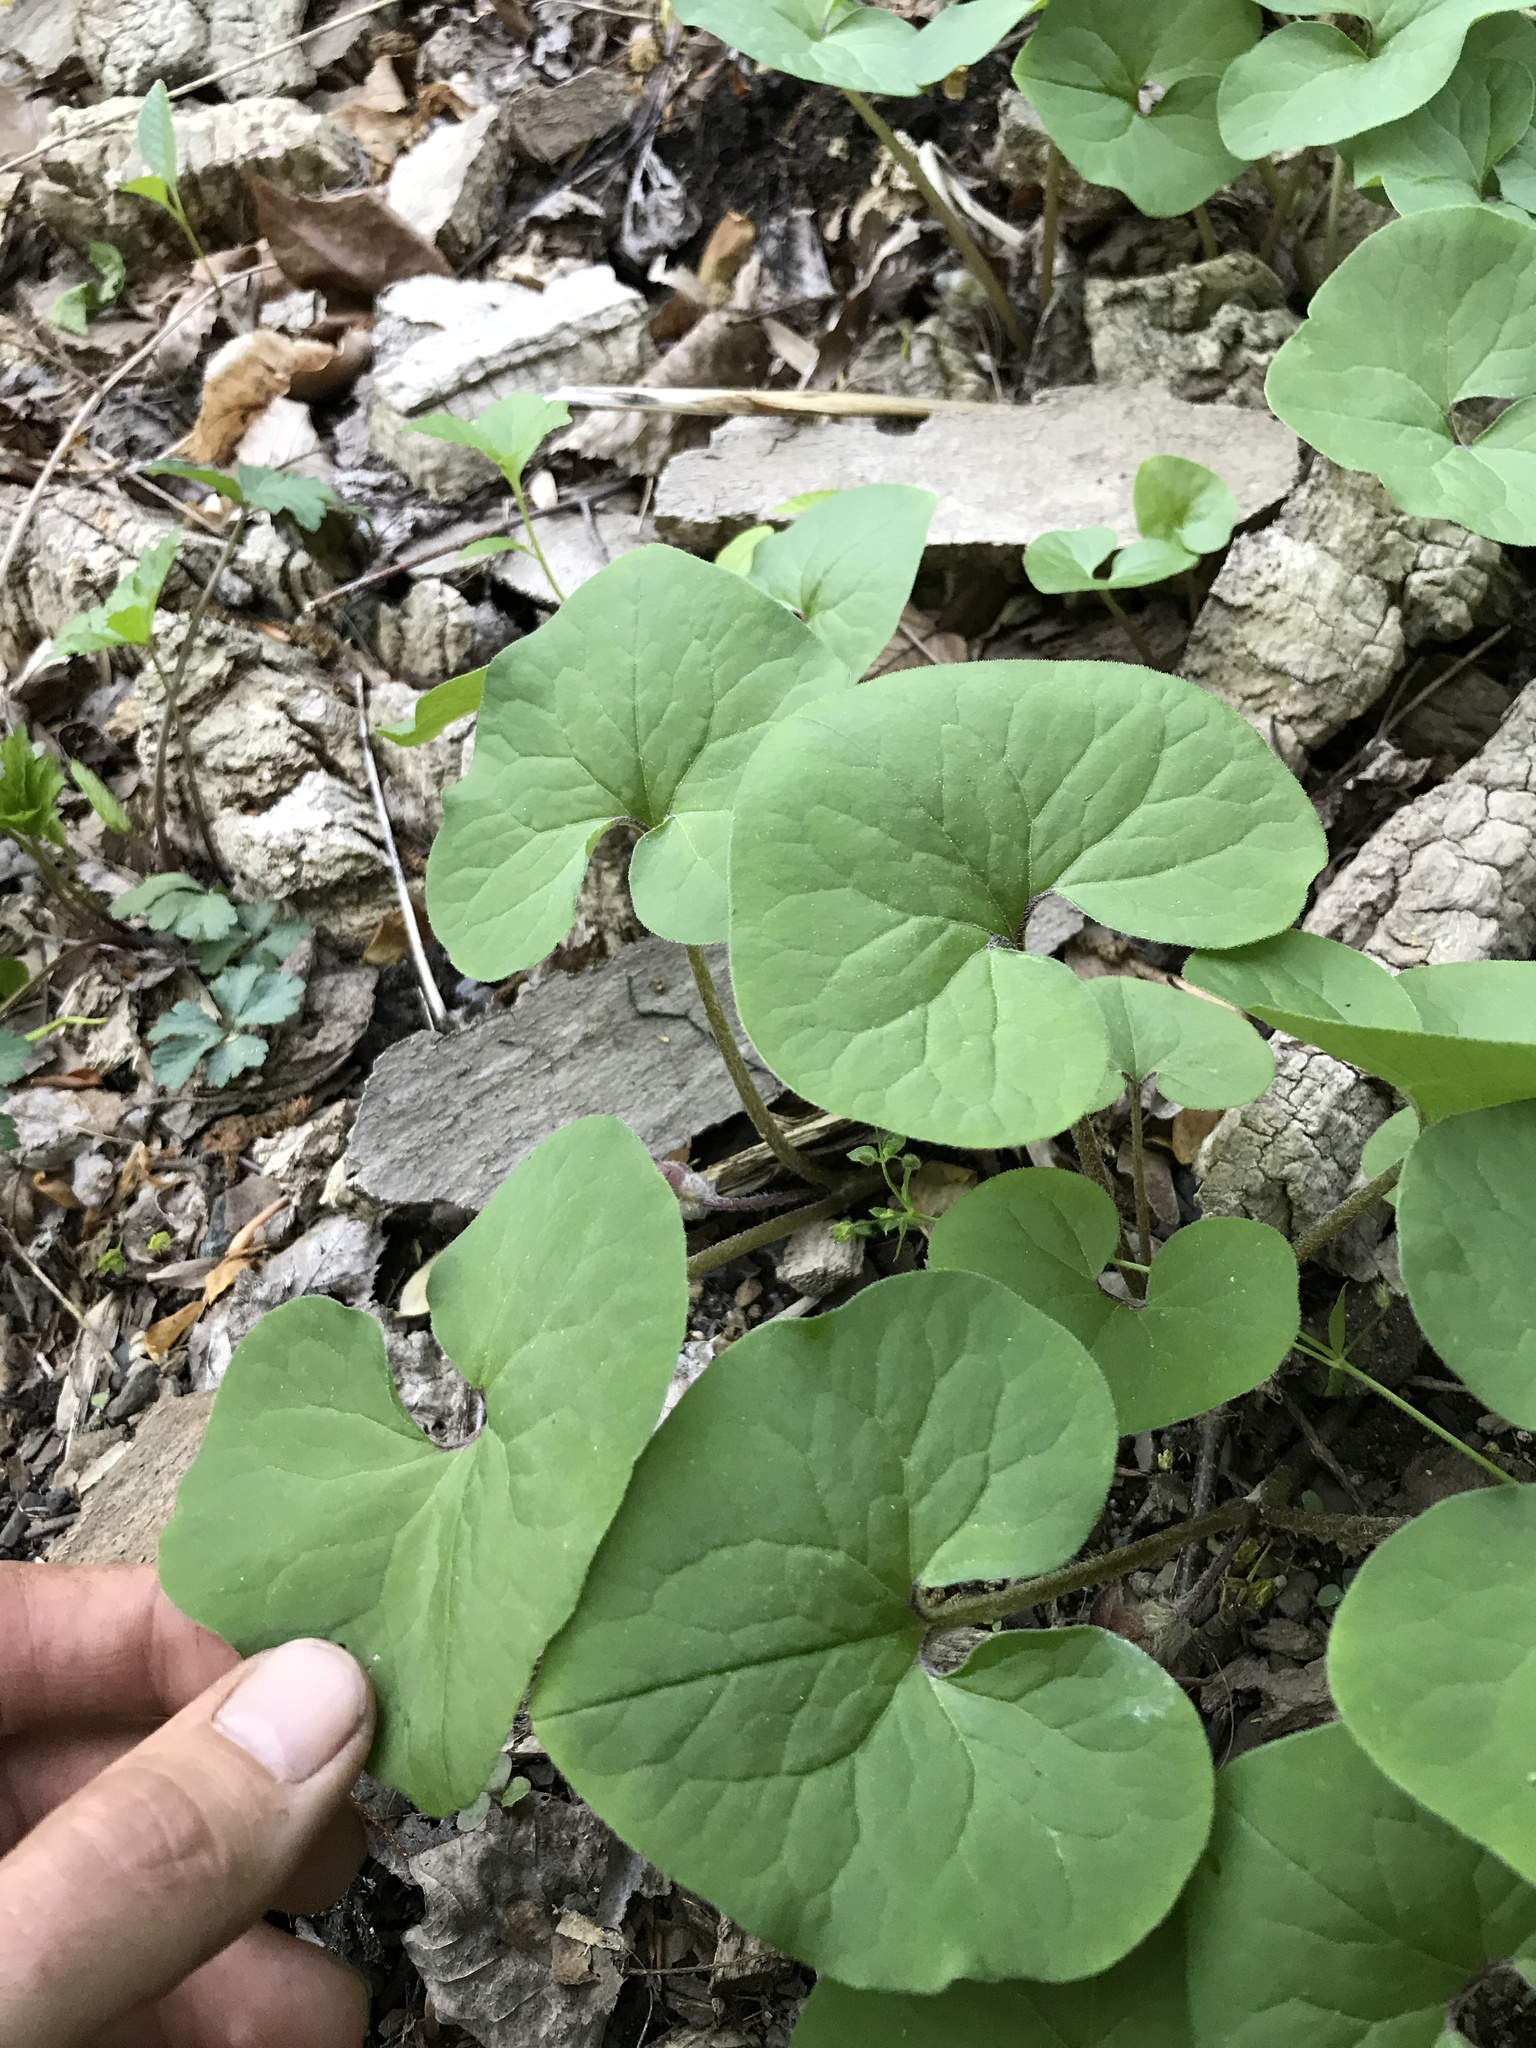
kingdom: Plantae
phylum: Tracheophyta
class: Magnoliopsida
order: Piperales
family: Aristolochiaceae
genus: Asarum
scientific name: Asarum canadense
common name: Wild ginger
